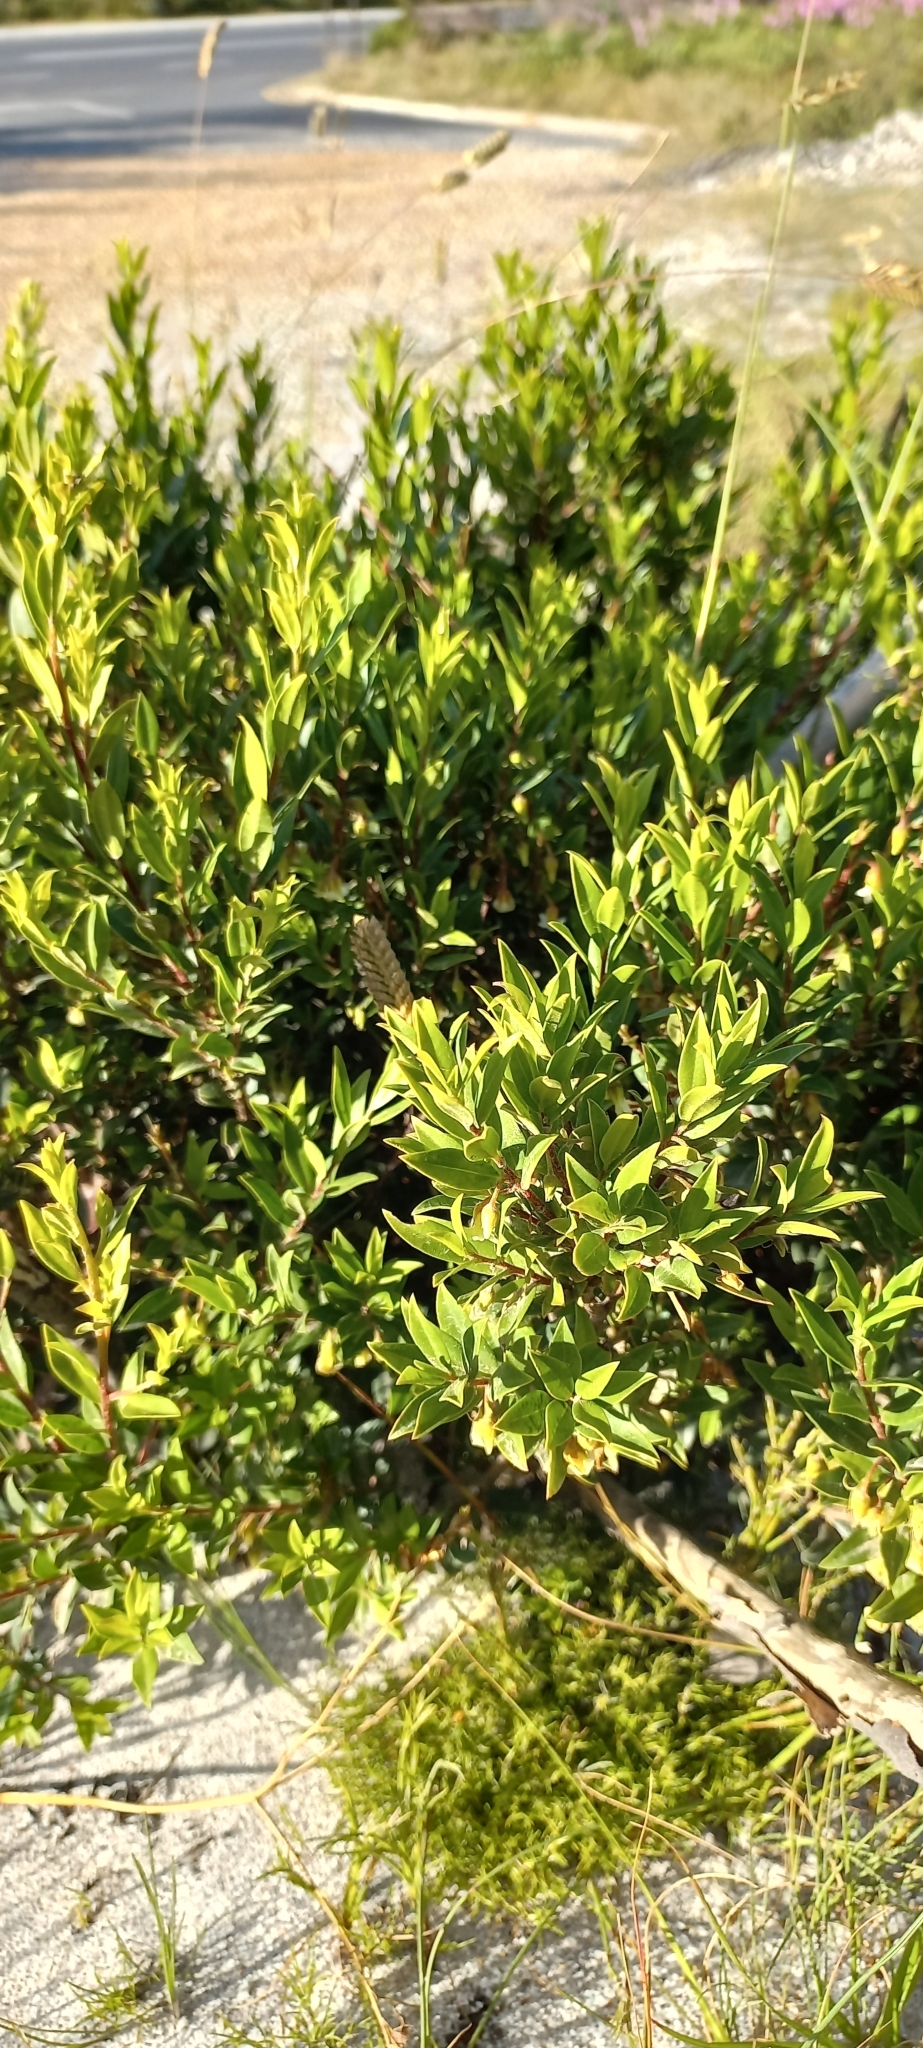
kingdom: Plantae
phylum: Tracheophyta
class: Magnoliopsida
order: Ericales
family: Ebenaceae
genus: Diospyros
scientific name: Diospyros glabra
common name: Fynbos star apple
